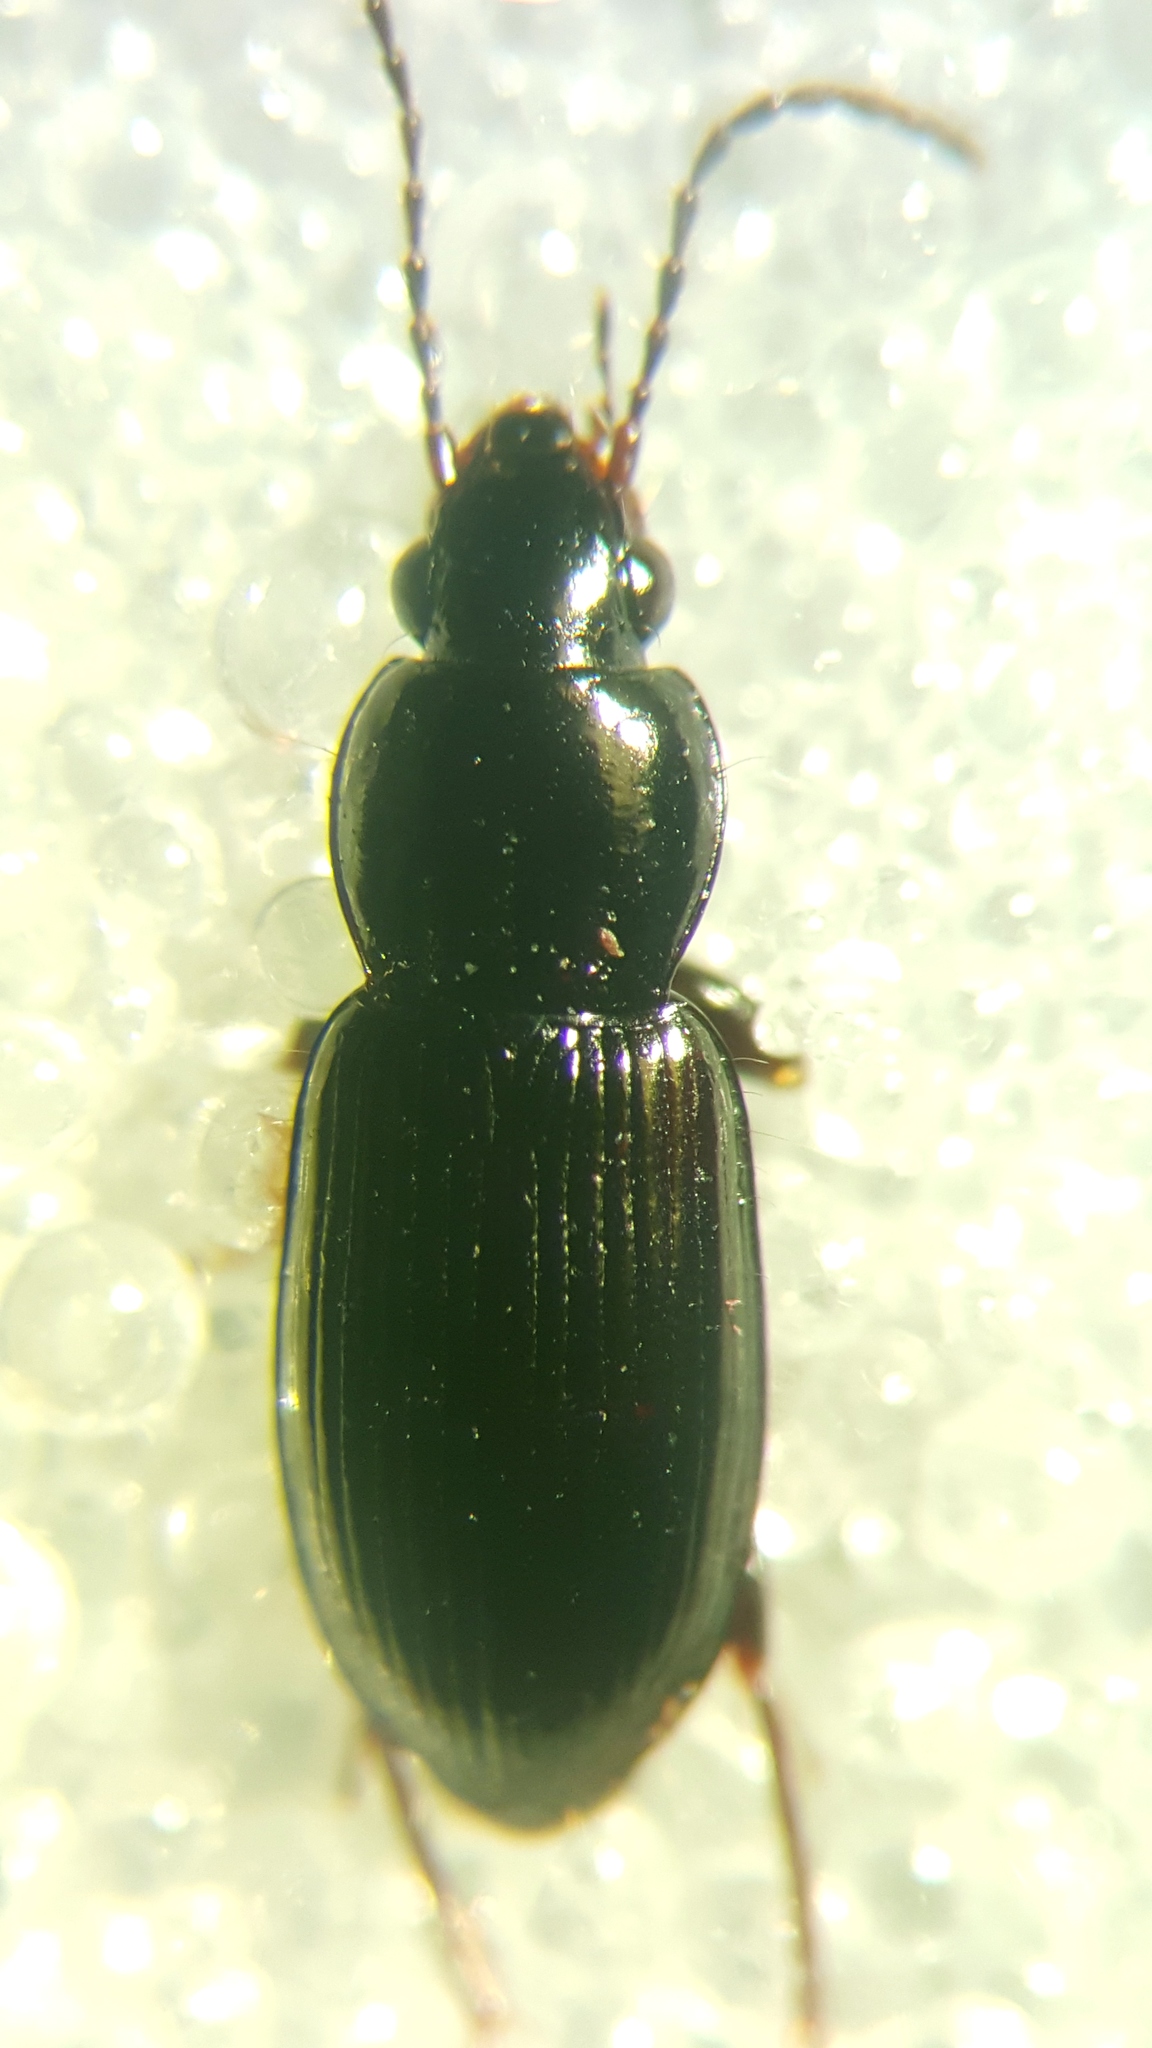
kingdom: Animalia
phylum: Arthropoda
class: Insecta
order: Coleoptera
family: Carabidae
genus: Pterostichus
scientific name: Pterostichus diligens
